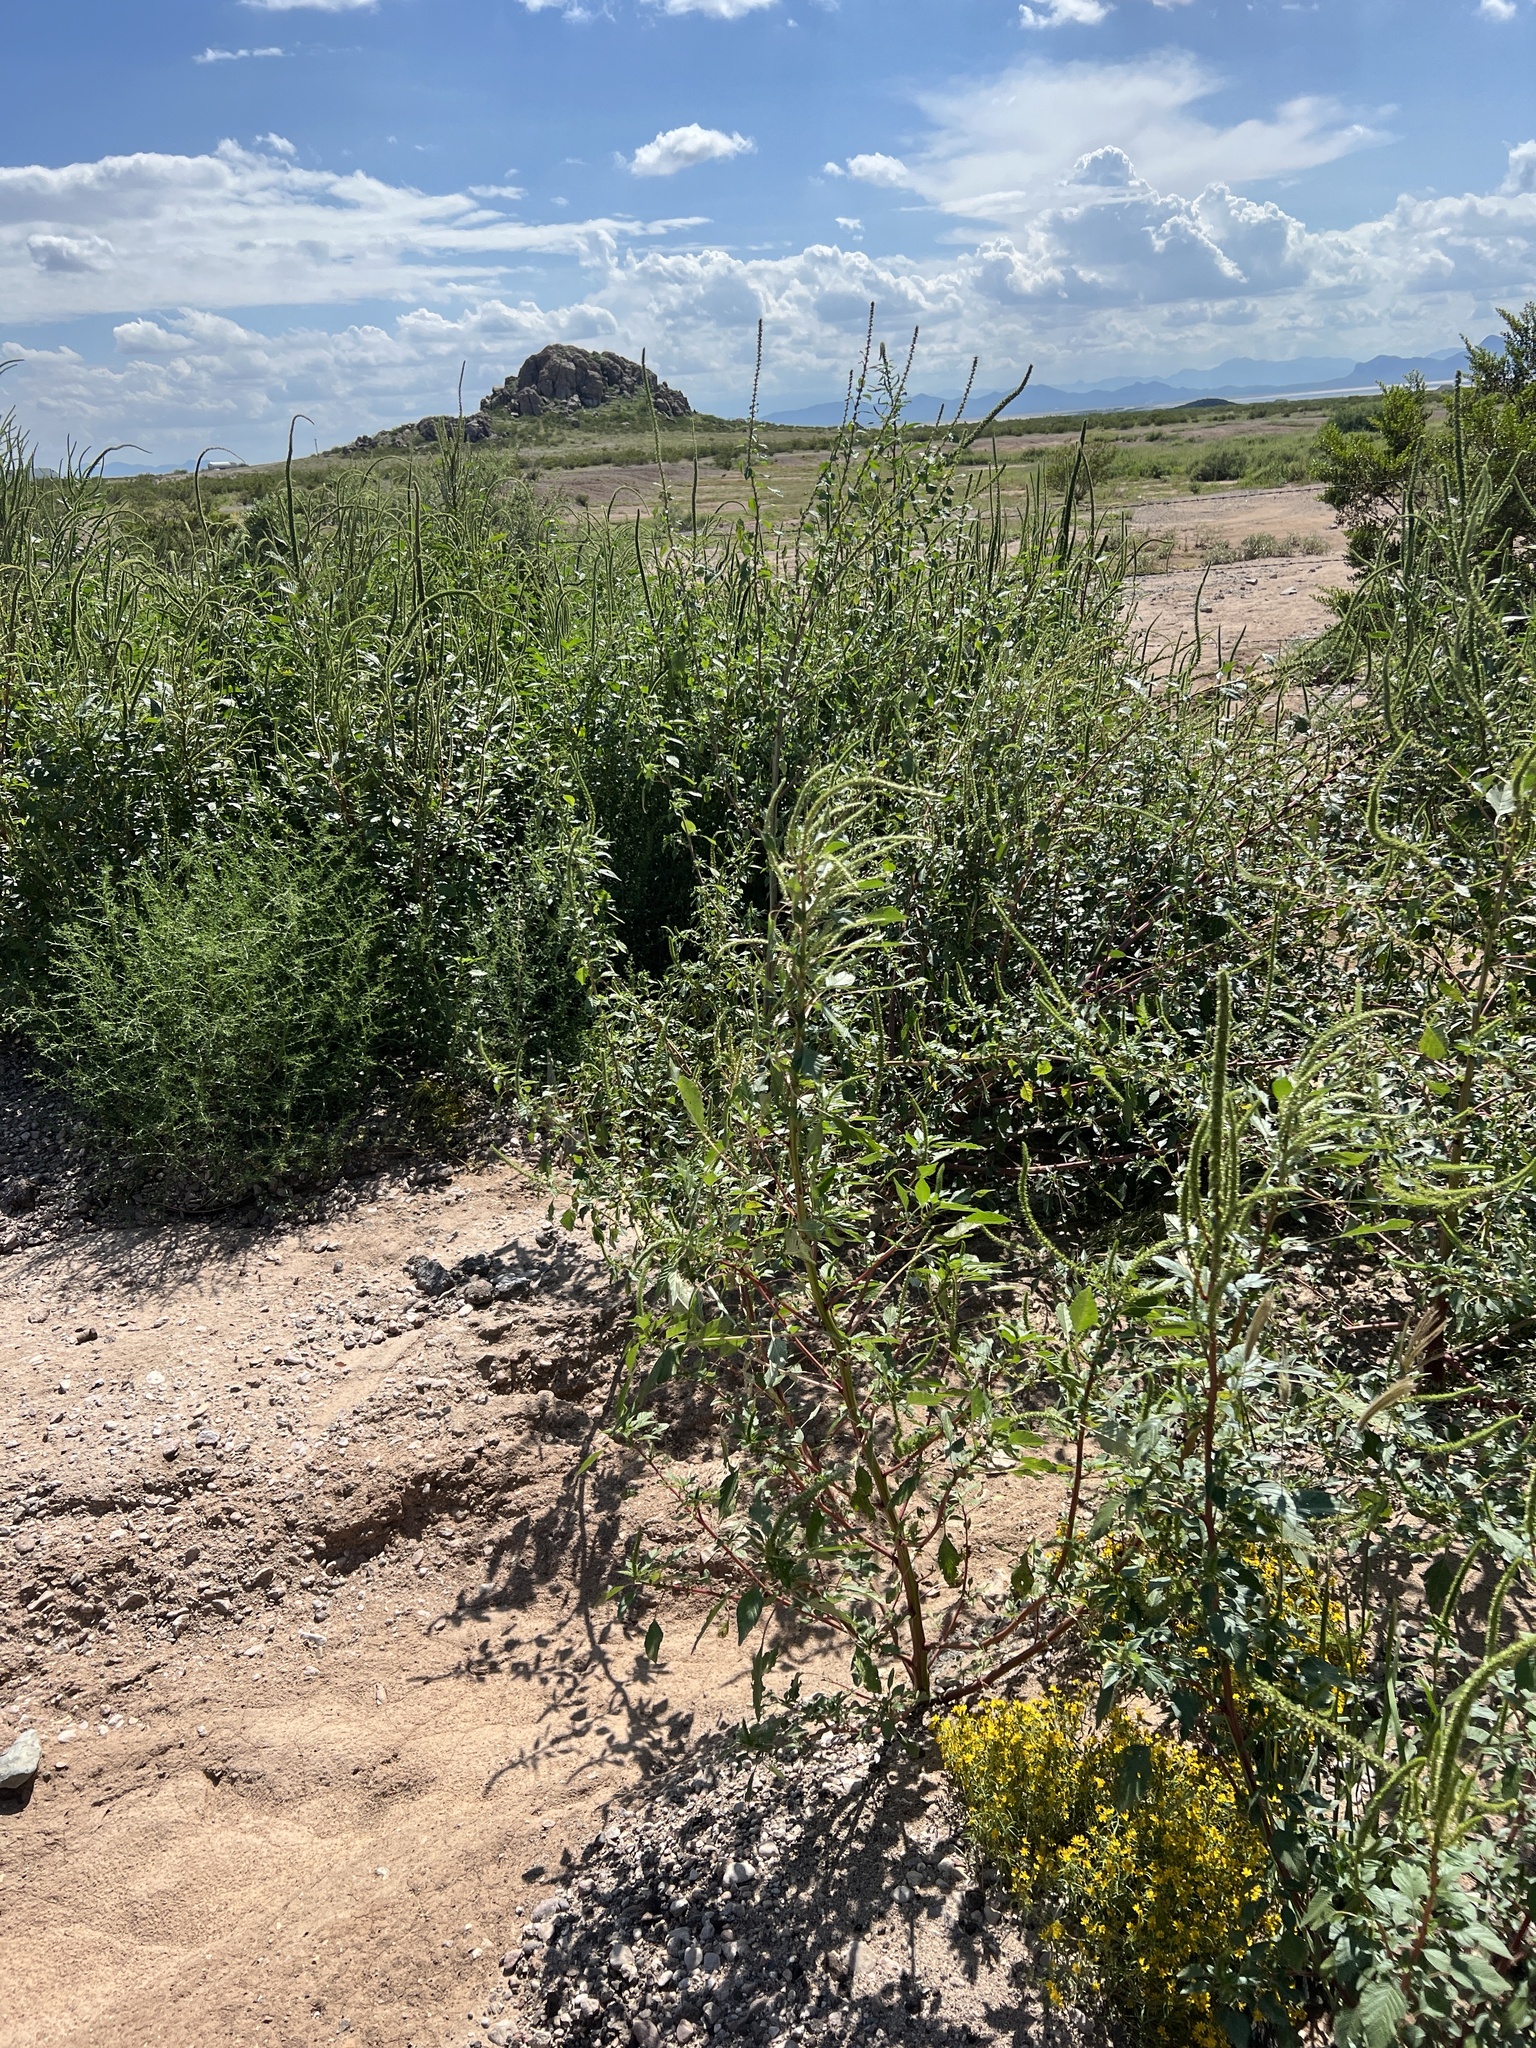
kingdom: Plantae
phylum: Tracheophyta
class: Magnoliopsida
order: Caryophyllales
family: Amaranthaceae
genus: Amaranthus
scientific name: Amaranthus palmeri
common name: Dioecious amaranth
